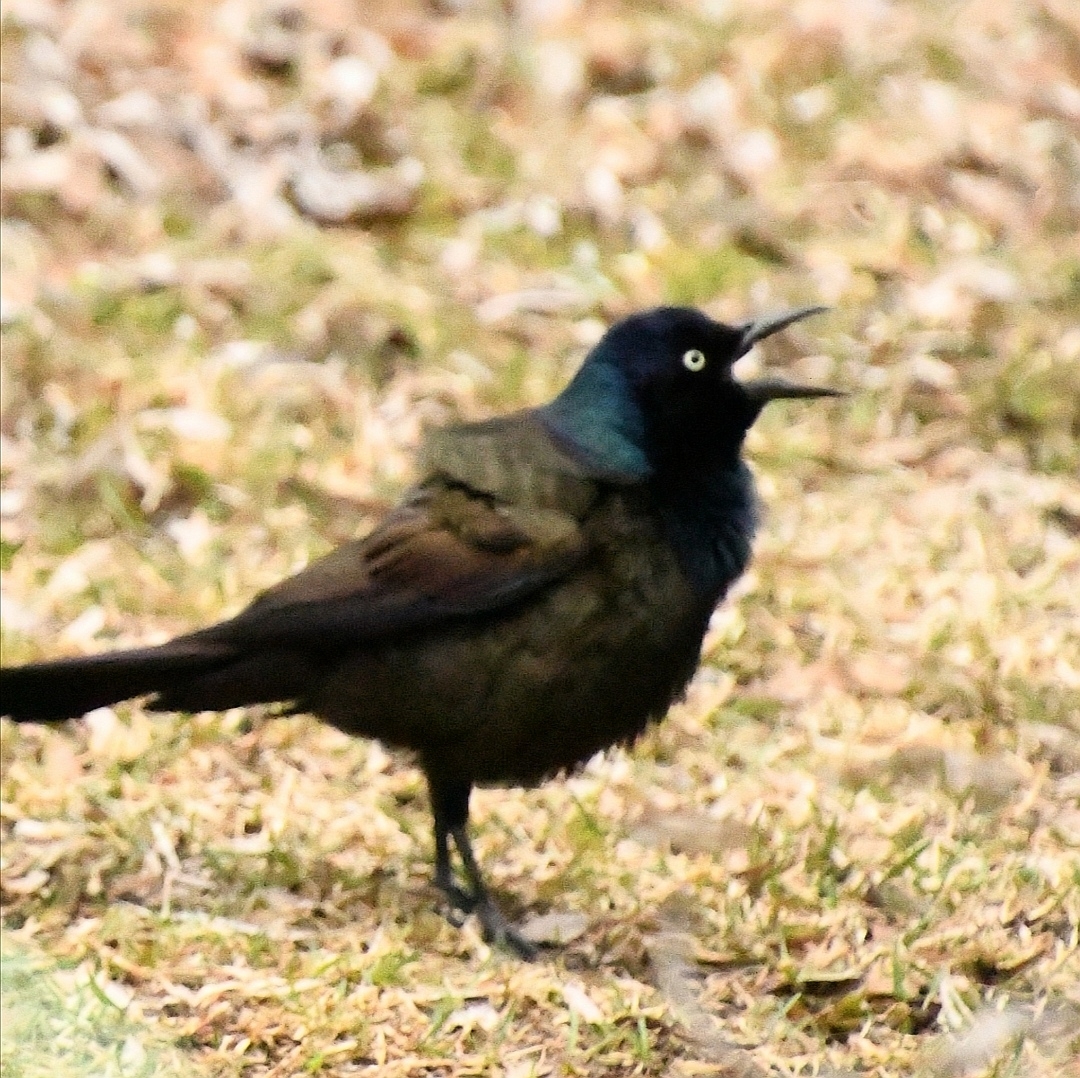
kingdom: Animalia
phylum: Chordata
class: Aves
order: Passeriformes
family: Icteridae
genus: Quiscalus
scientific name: Quiscalus quiscula
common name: Common grackle
